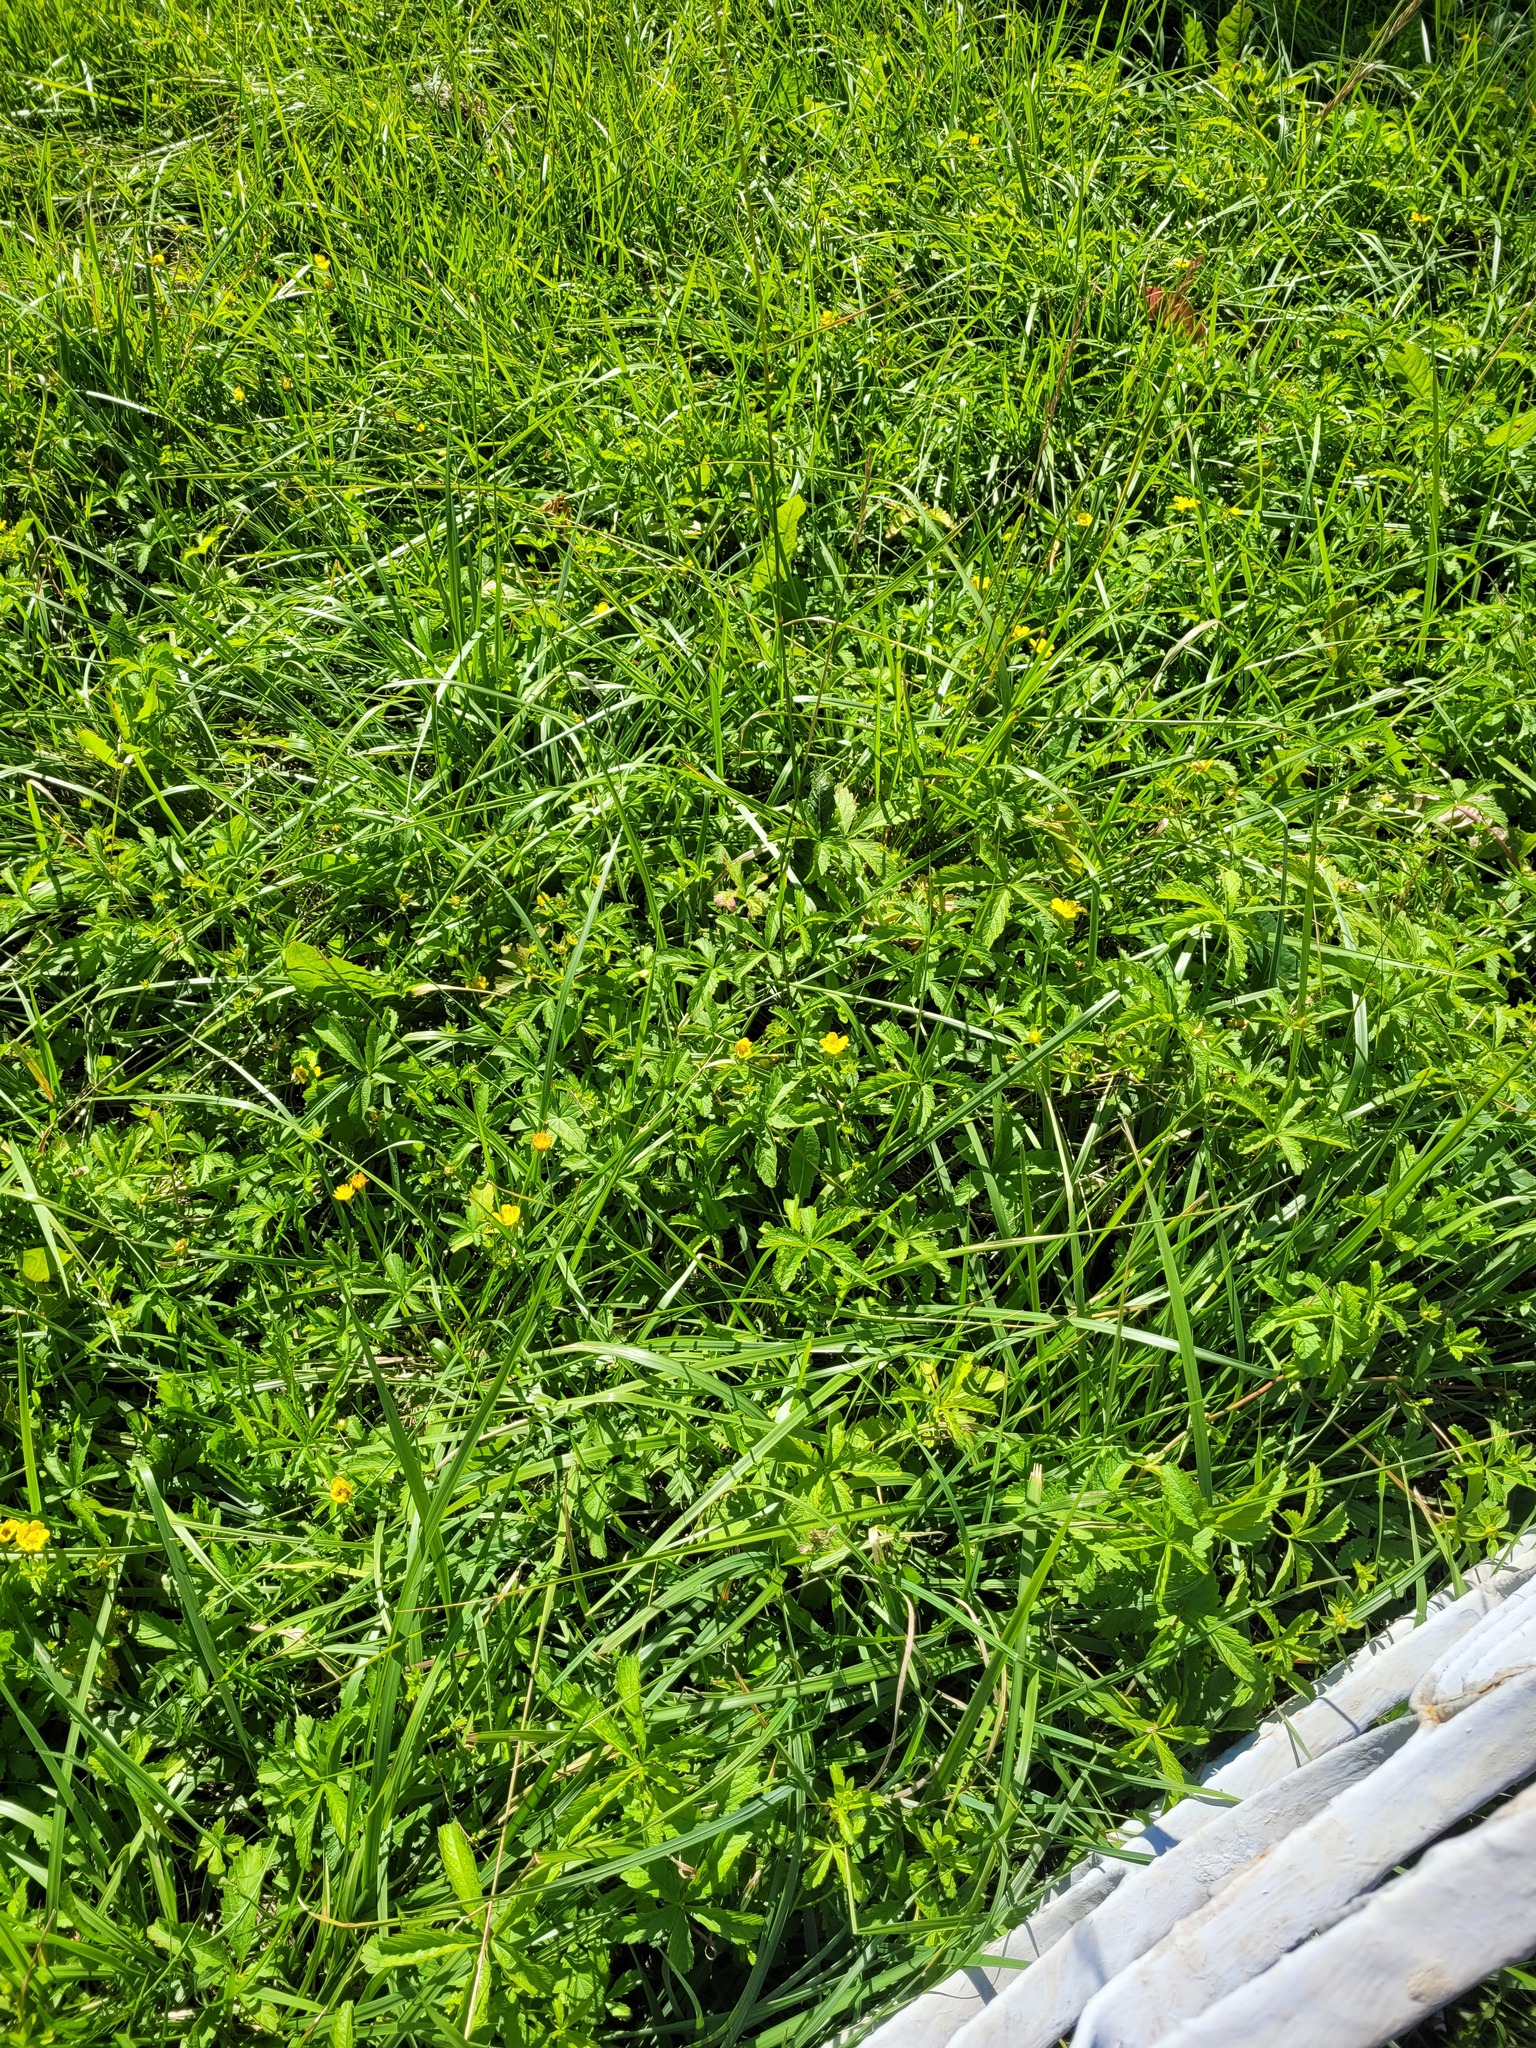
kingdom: Plantae
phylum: Tracheophyta
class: Magnoliopsida
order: Rosales
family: Rosaceae
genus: Potentilla
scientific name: Potentilla reptans
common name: Creeping cinquefoil
